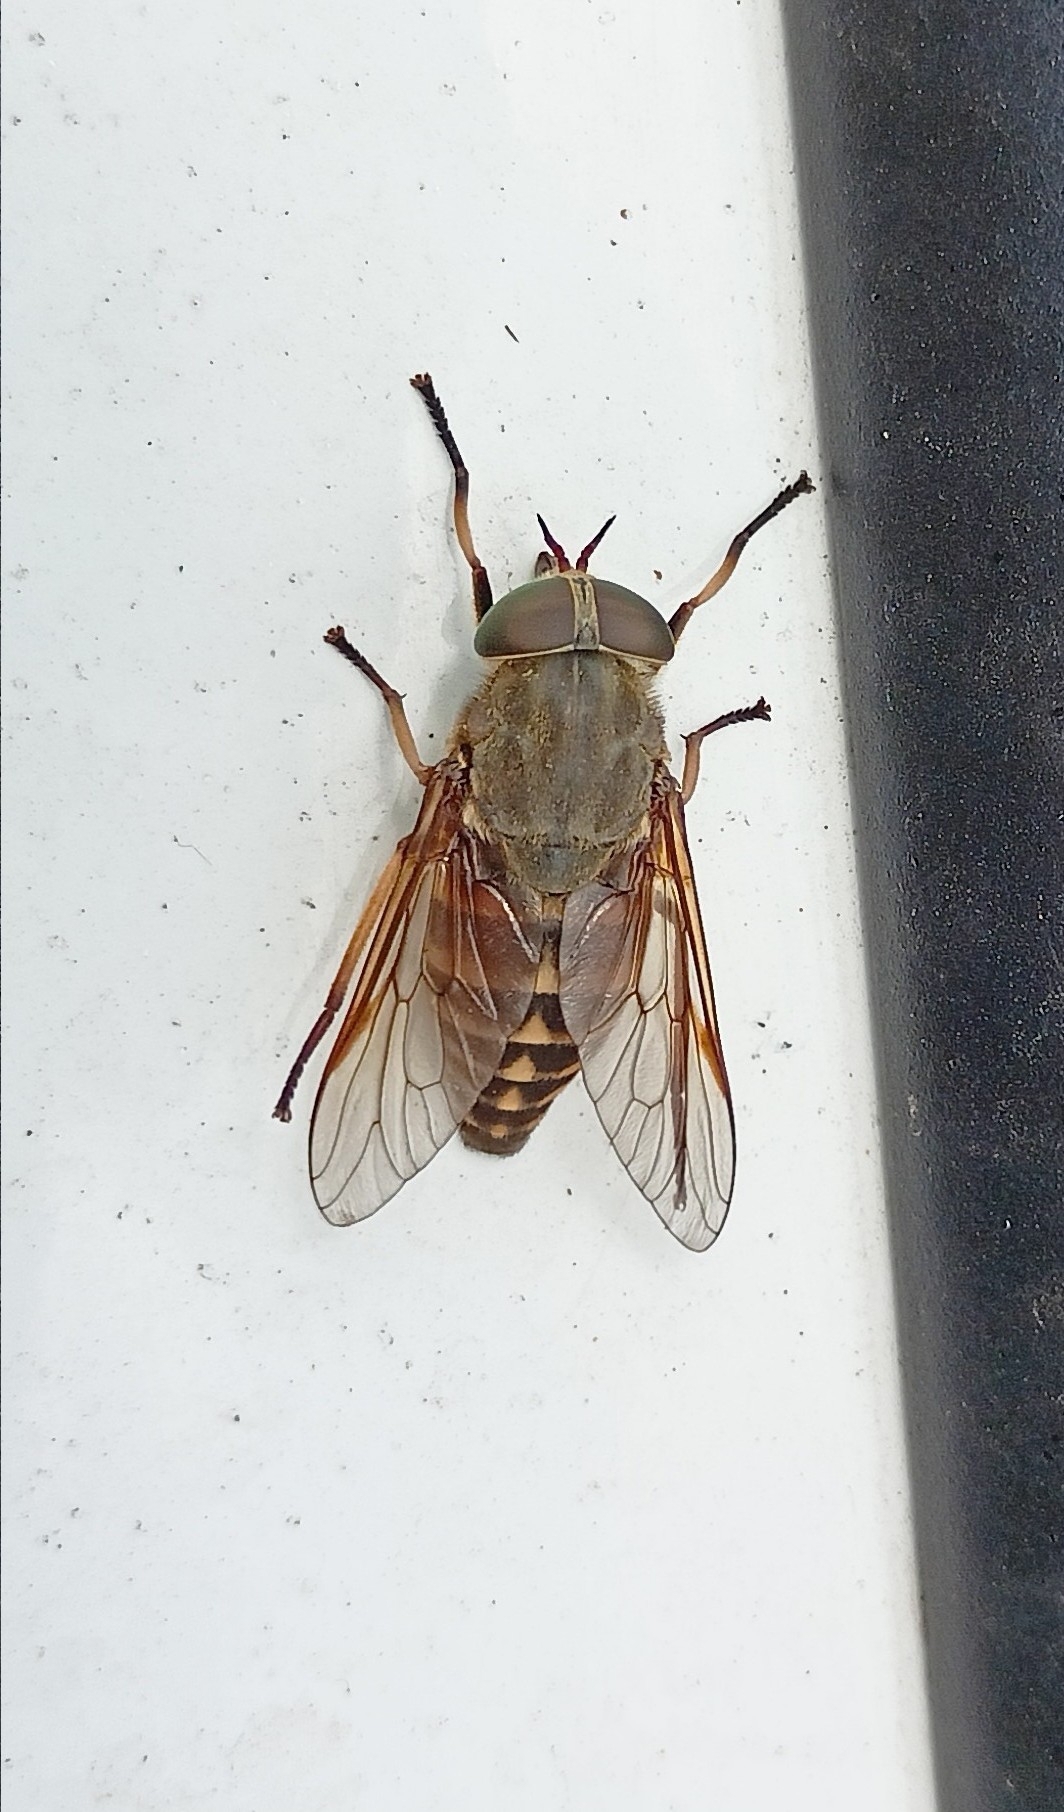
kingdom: Animalia
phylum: Arthropoda
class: Insecta
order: Diptera
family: Tabanidae
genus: Tabanus
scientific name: Tabanus sudeticus
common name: Dark giant horsefly
